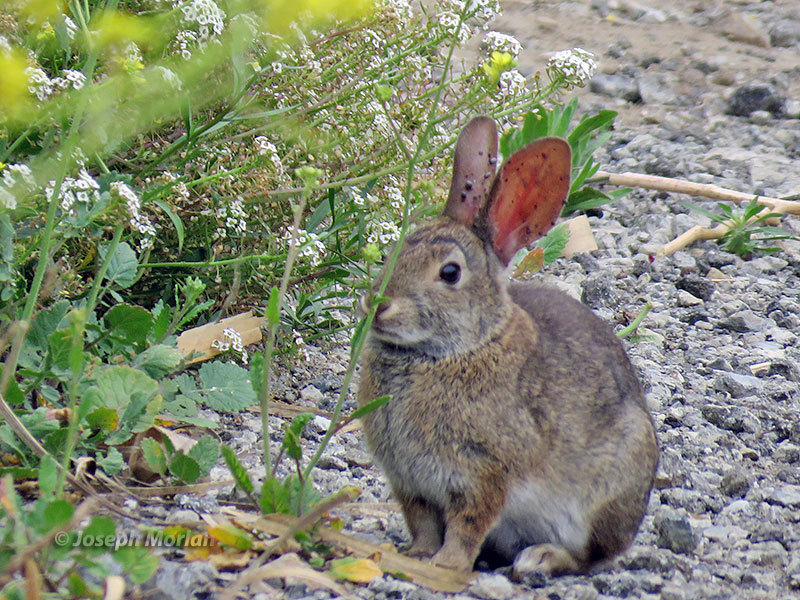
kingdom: Animalia
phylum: Chordata
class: Mammalia
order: Lagomorpha
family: Leporidae
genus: Sylvilagus
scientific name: Sylvilagus bachmani
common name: Brush rabbit
